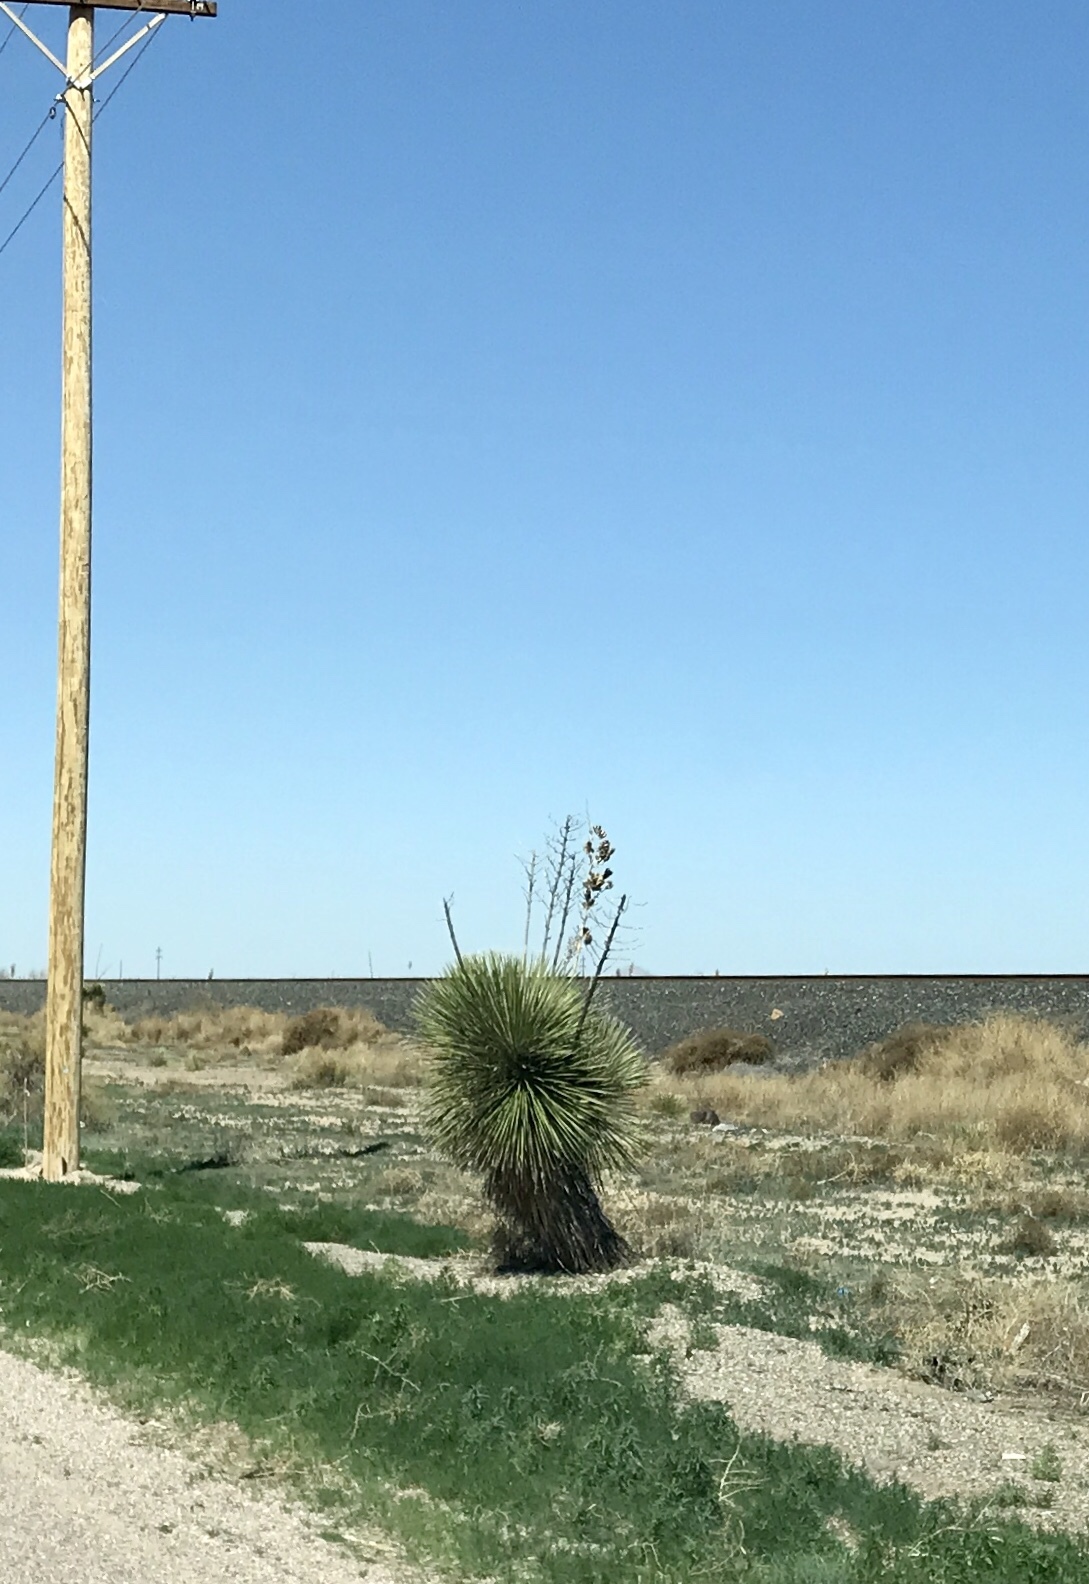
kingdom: Plantae
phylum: Tracheophyta
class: Liliopsida
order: Asparagales
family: Asparagaceae
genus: Yucca
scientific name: Yucca elata
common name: Palmella
